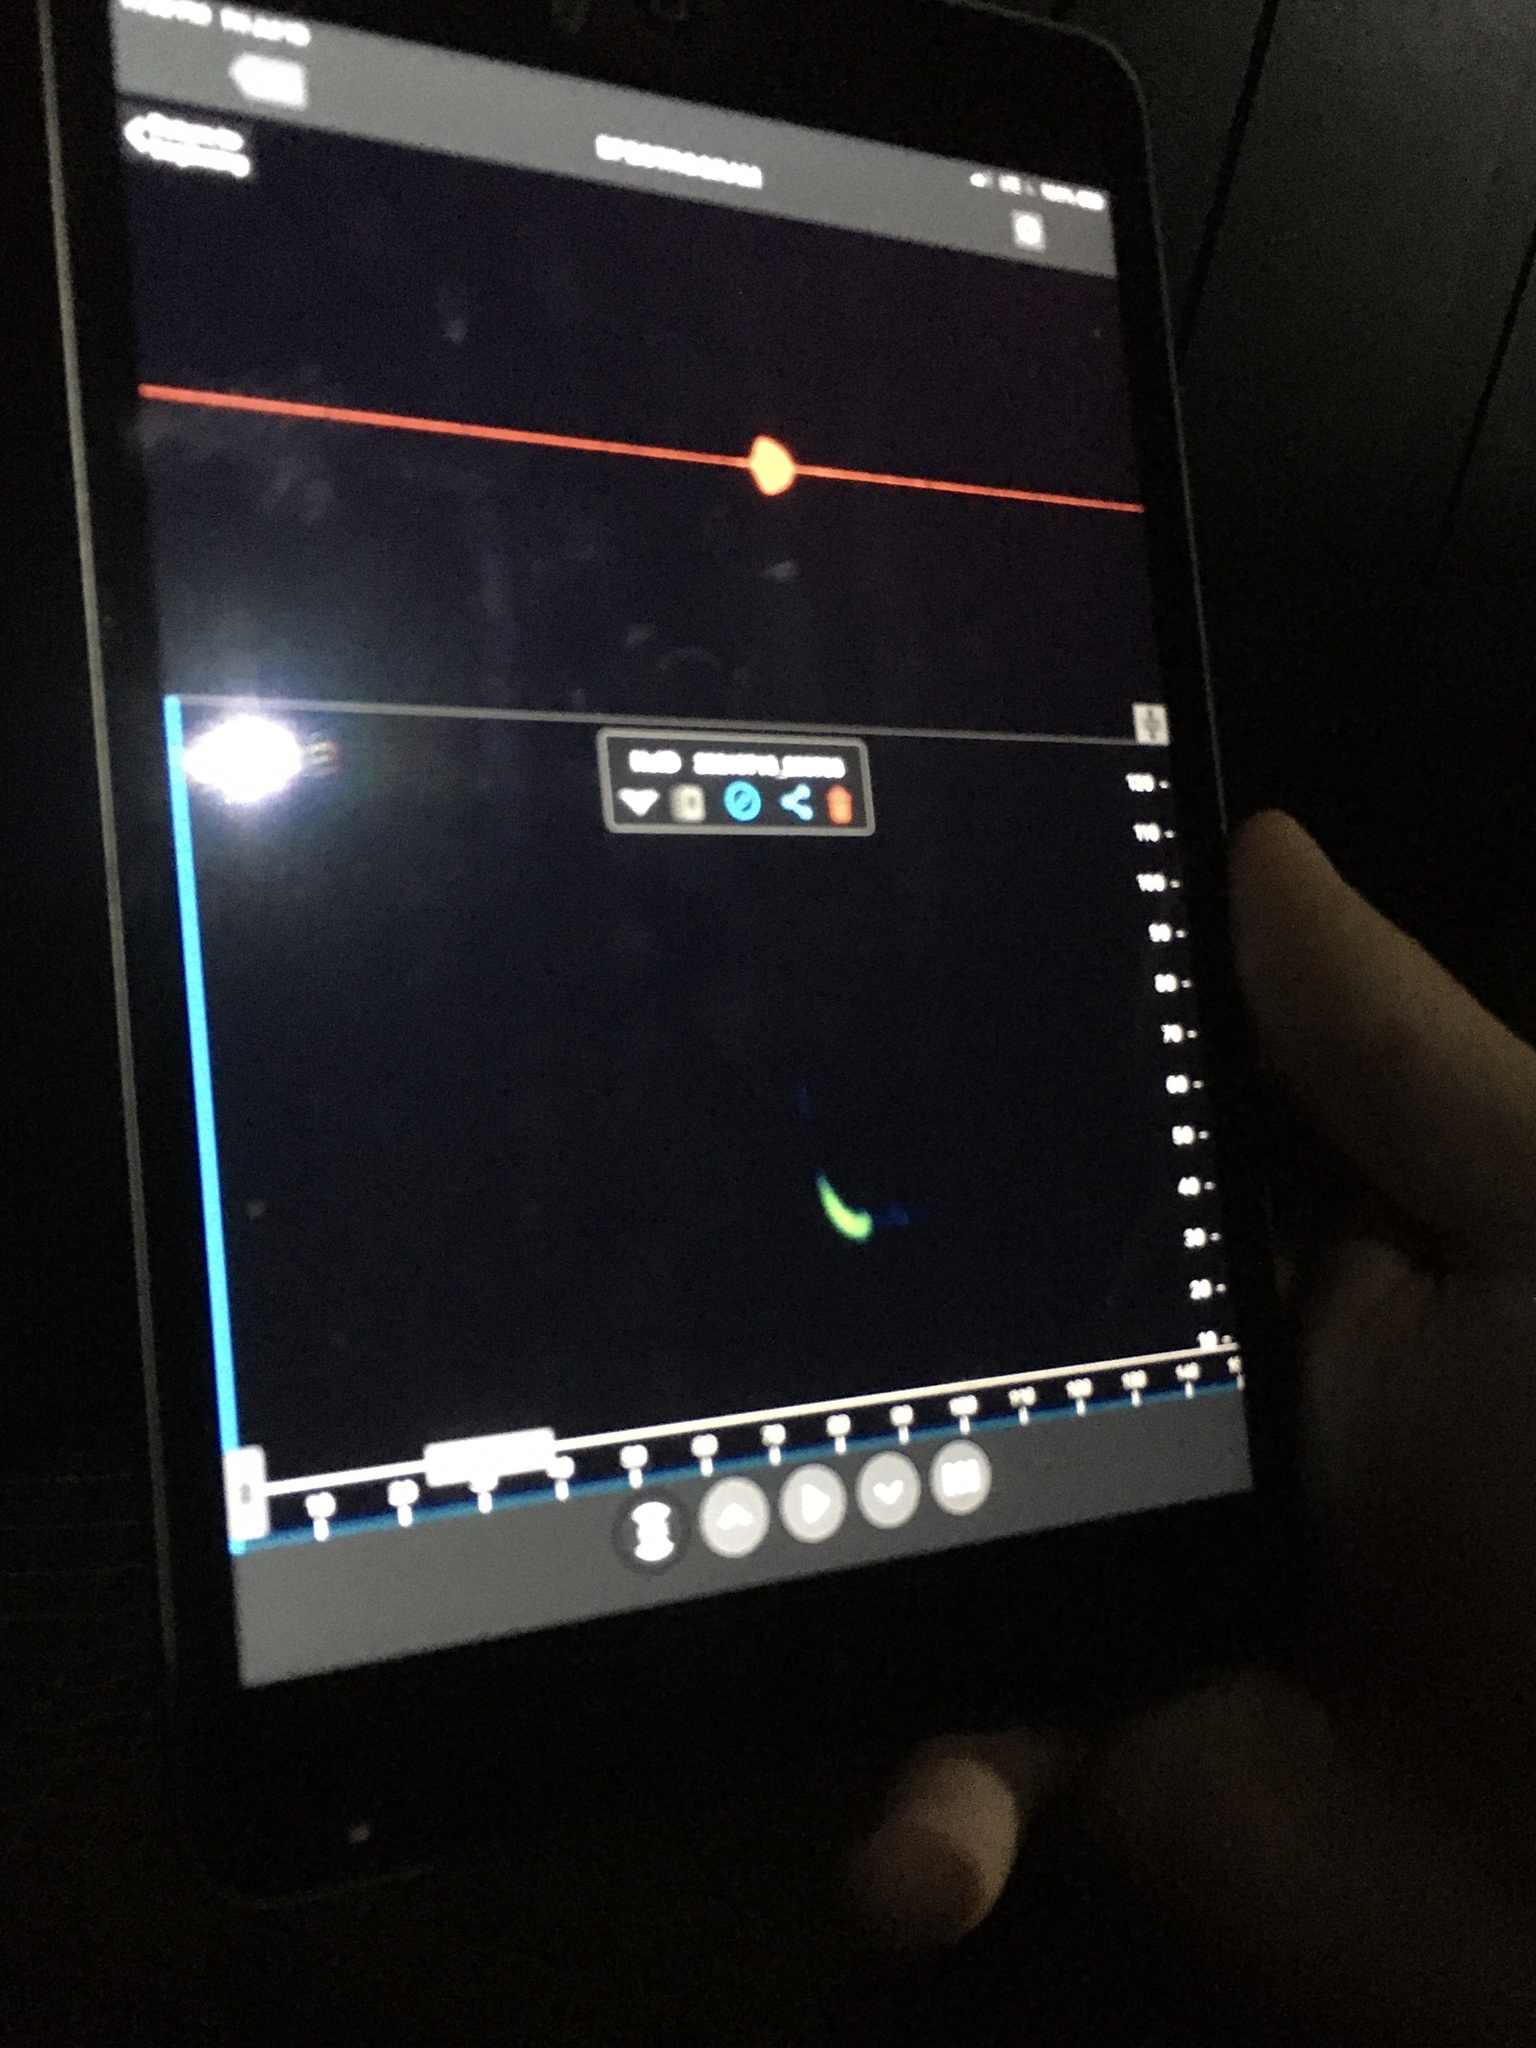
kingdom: Animalia
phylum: Chordata
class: Mammalia
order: Chiroptera
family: Vespertilionidae
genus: Lasiurus
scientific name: Lasiurus borealis
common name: Eastern red bat
